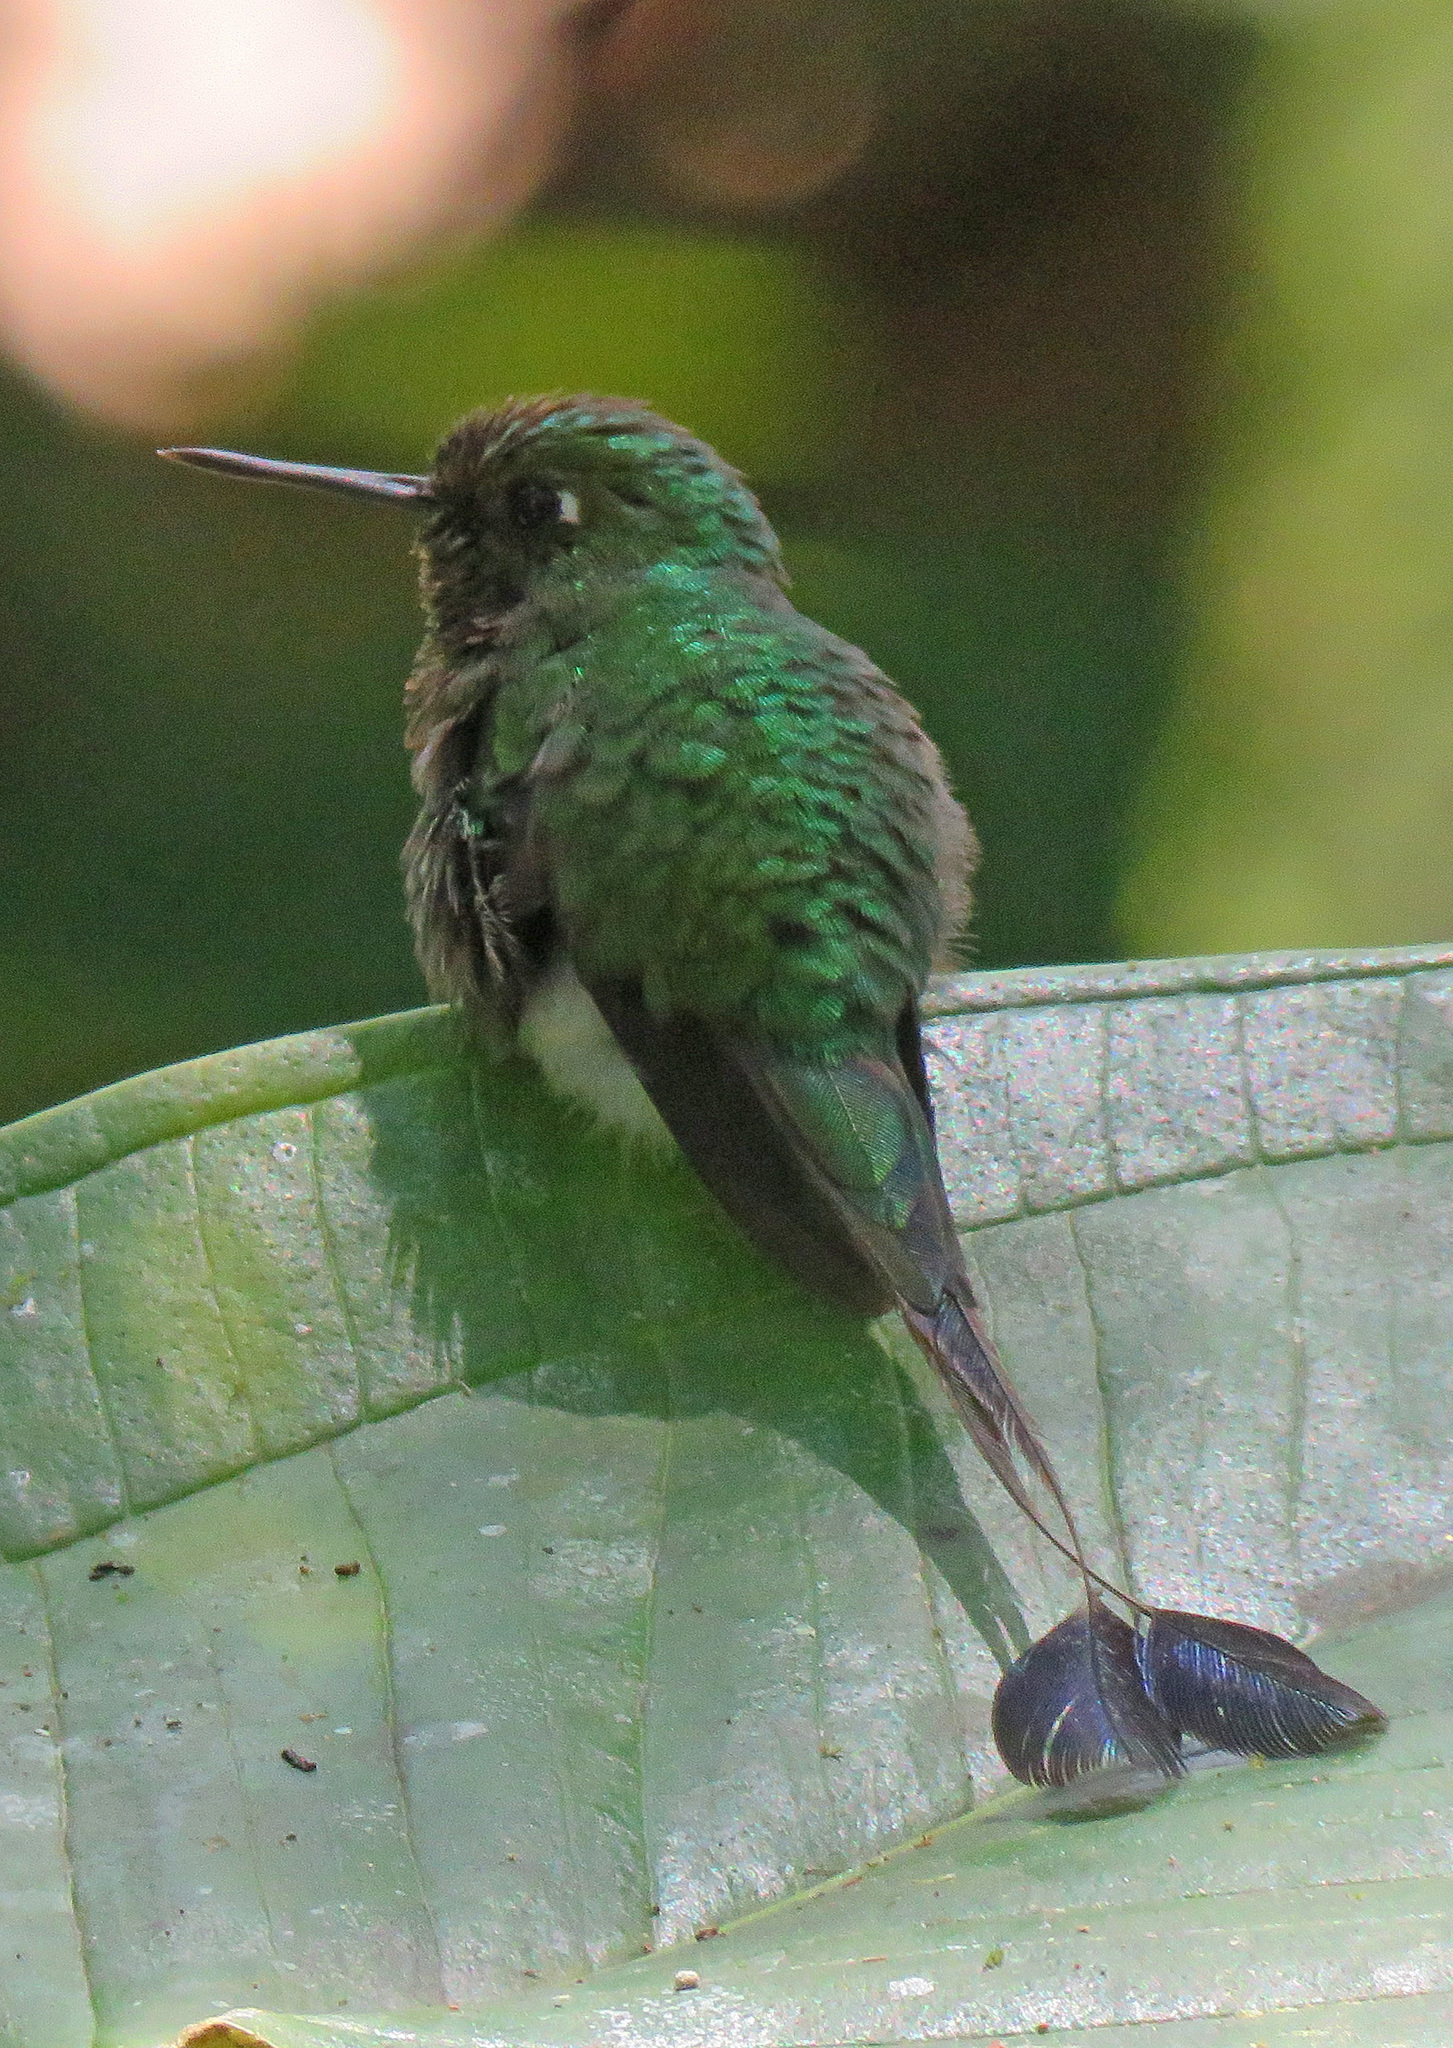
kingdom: Animalia
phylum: Chordata
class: Aves
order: Apodiformes
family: Trochilidae
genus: Ocreatus
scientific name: Ocreatus underwoodii
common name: Booted racket-tail
